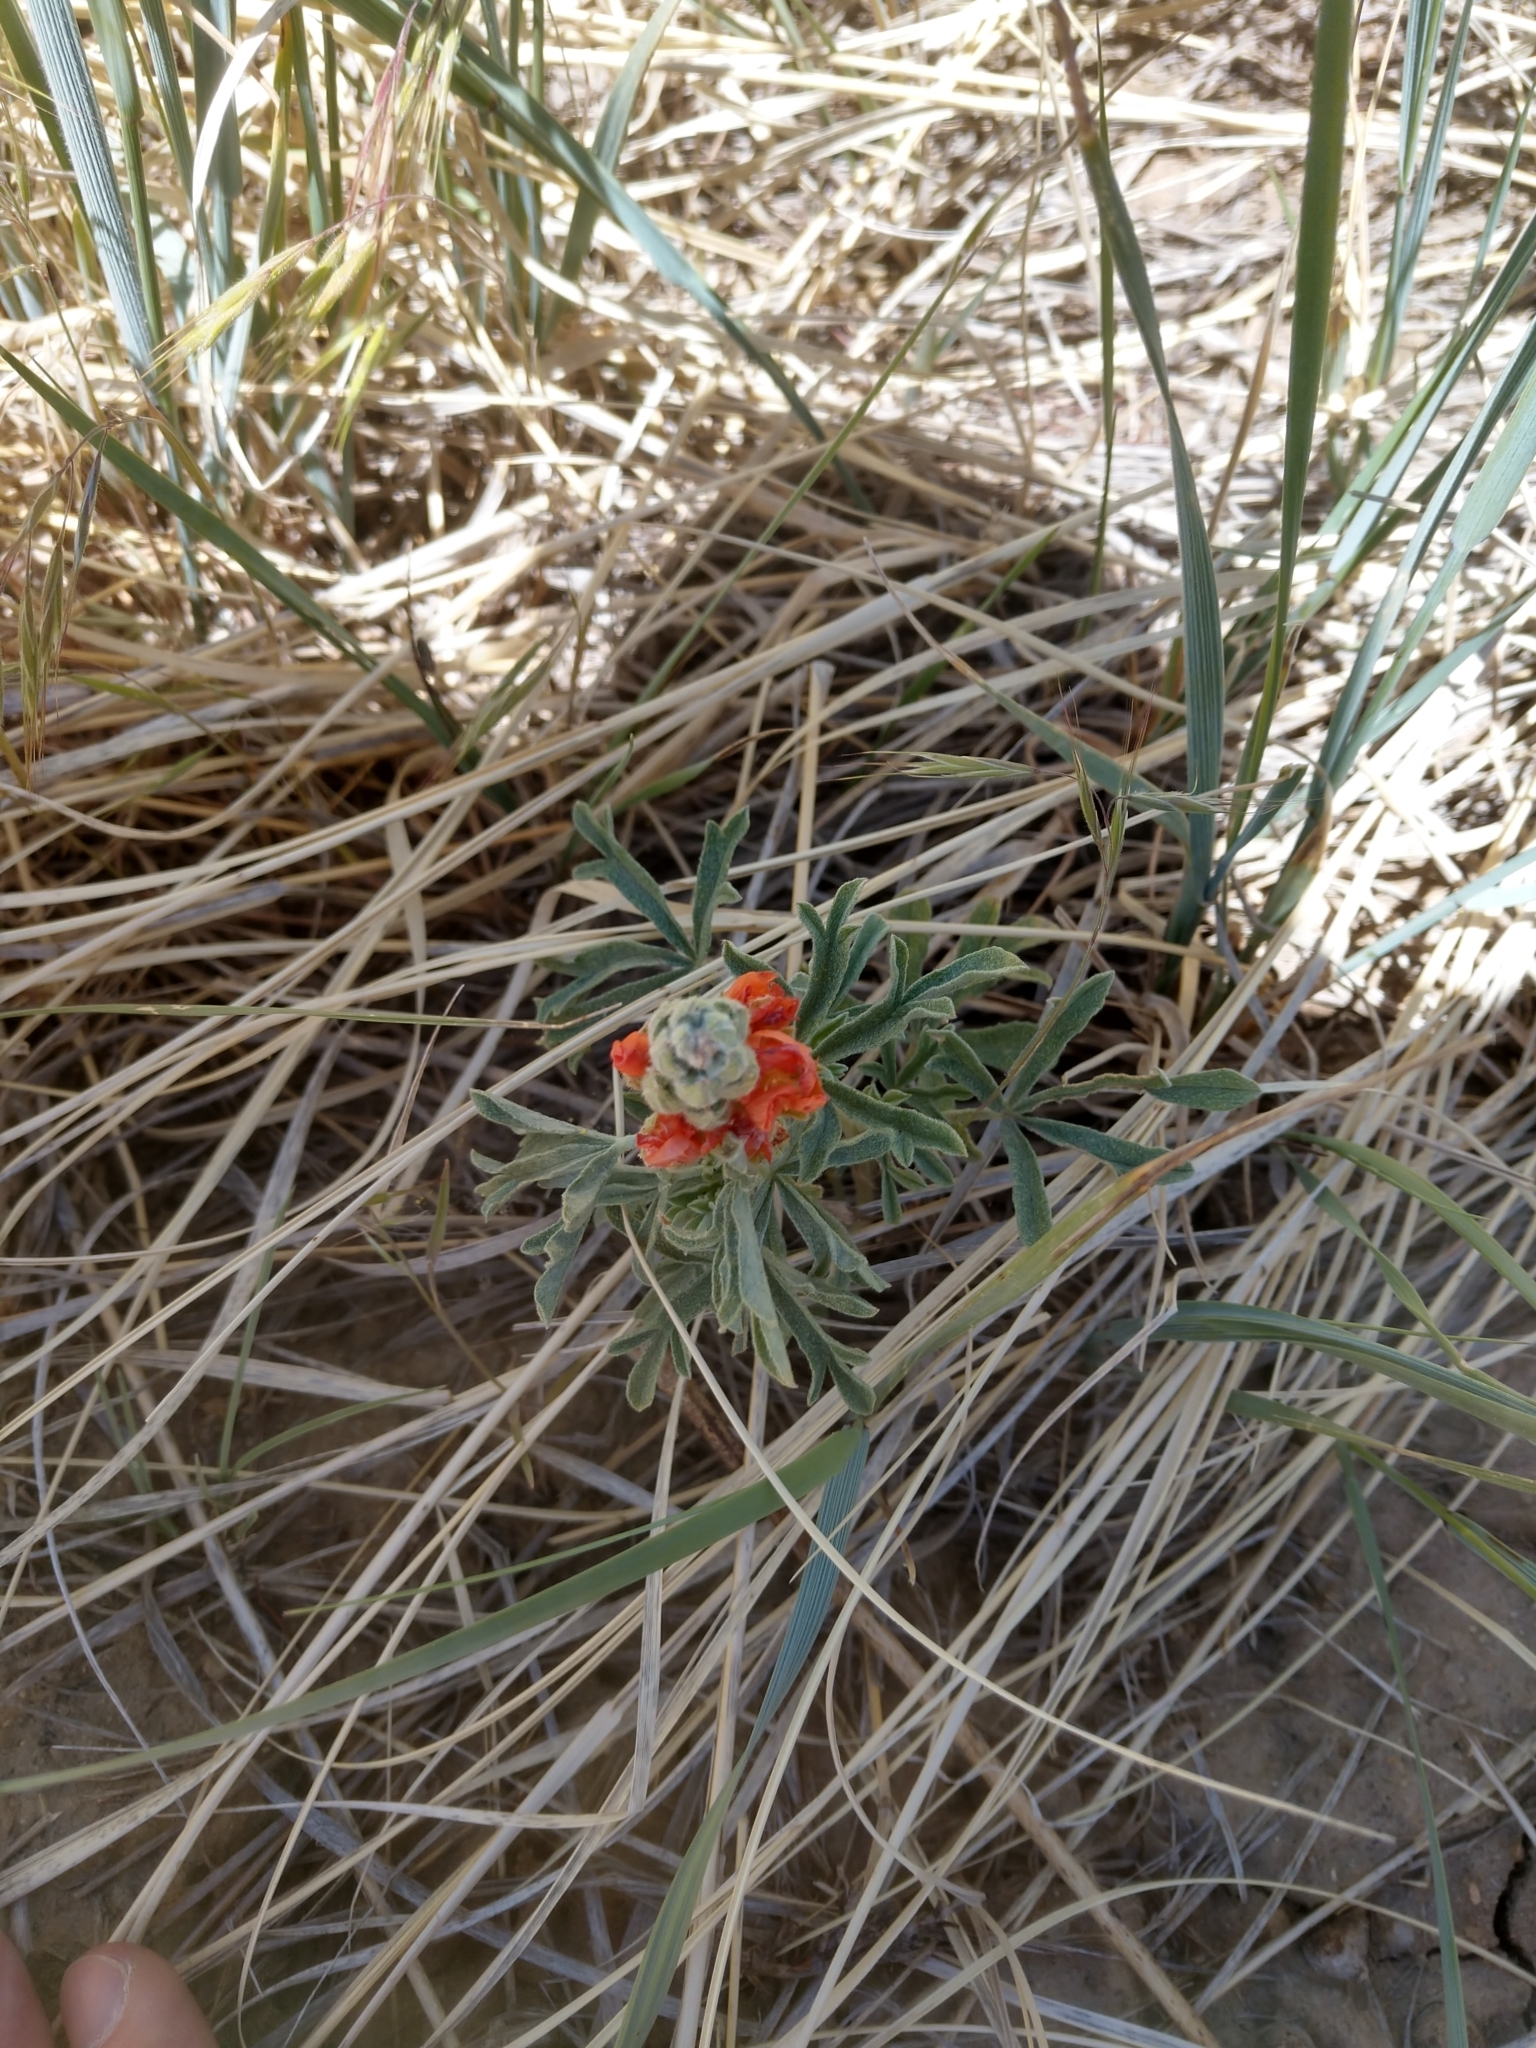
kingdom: Plantae
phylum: Tracheophyta
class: Magnoliopsida
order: Malvales
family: Malvaceae
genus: Sphaeralcea
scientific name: Sphaeralcea coccinea
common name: Moss-rose
